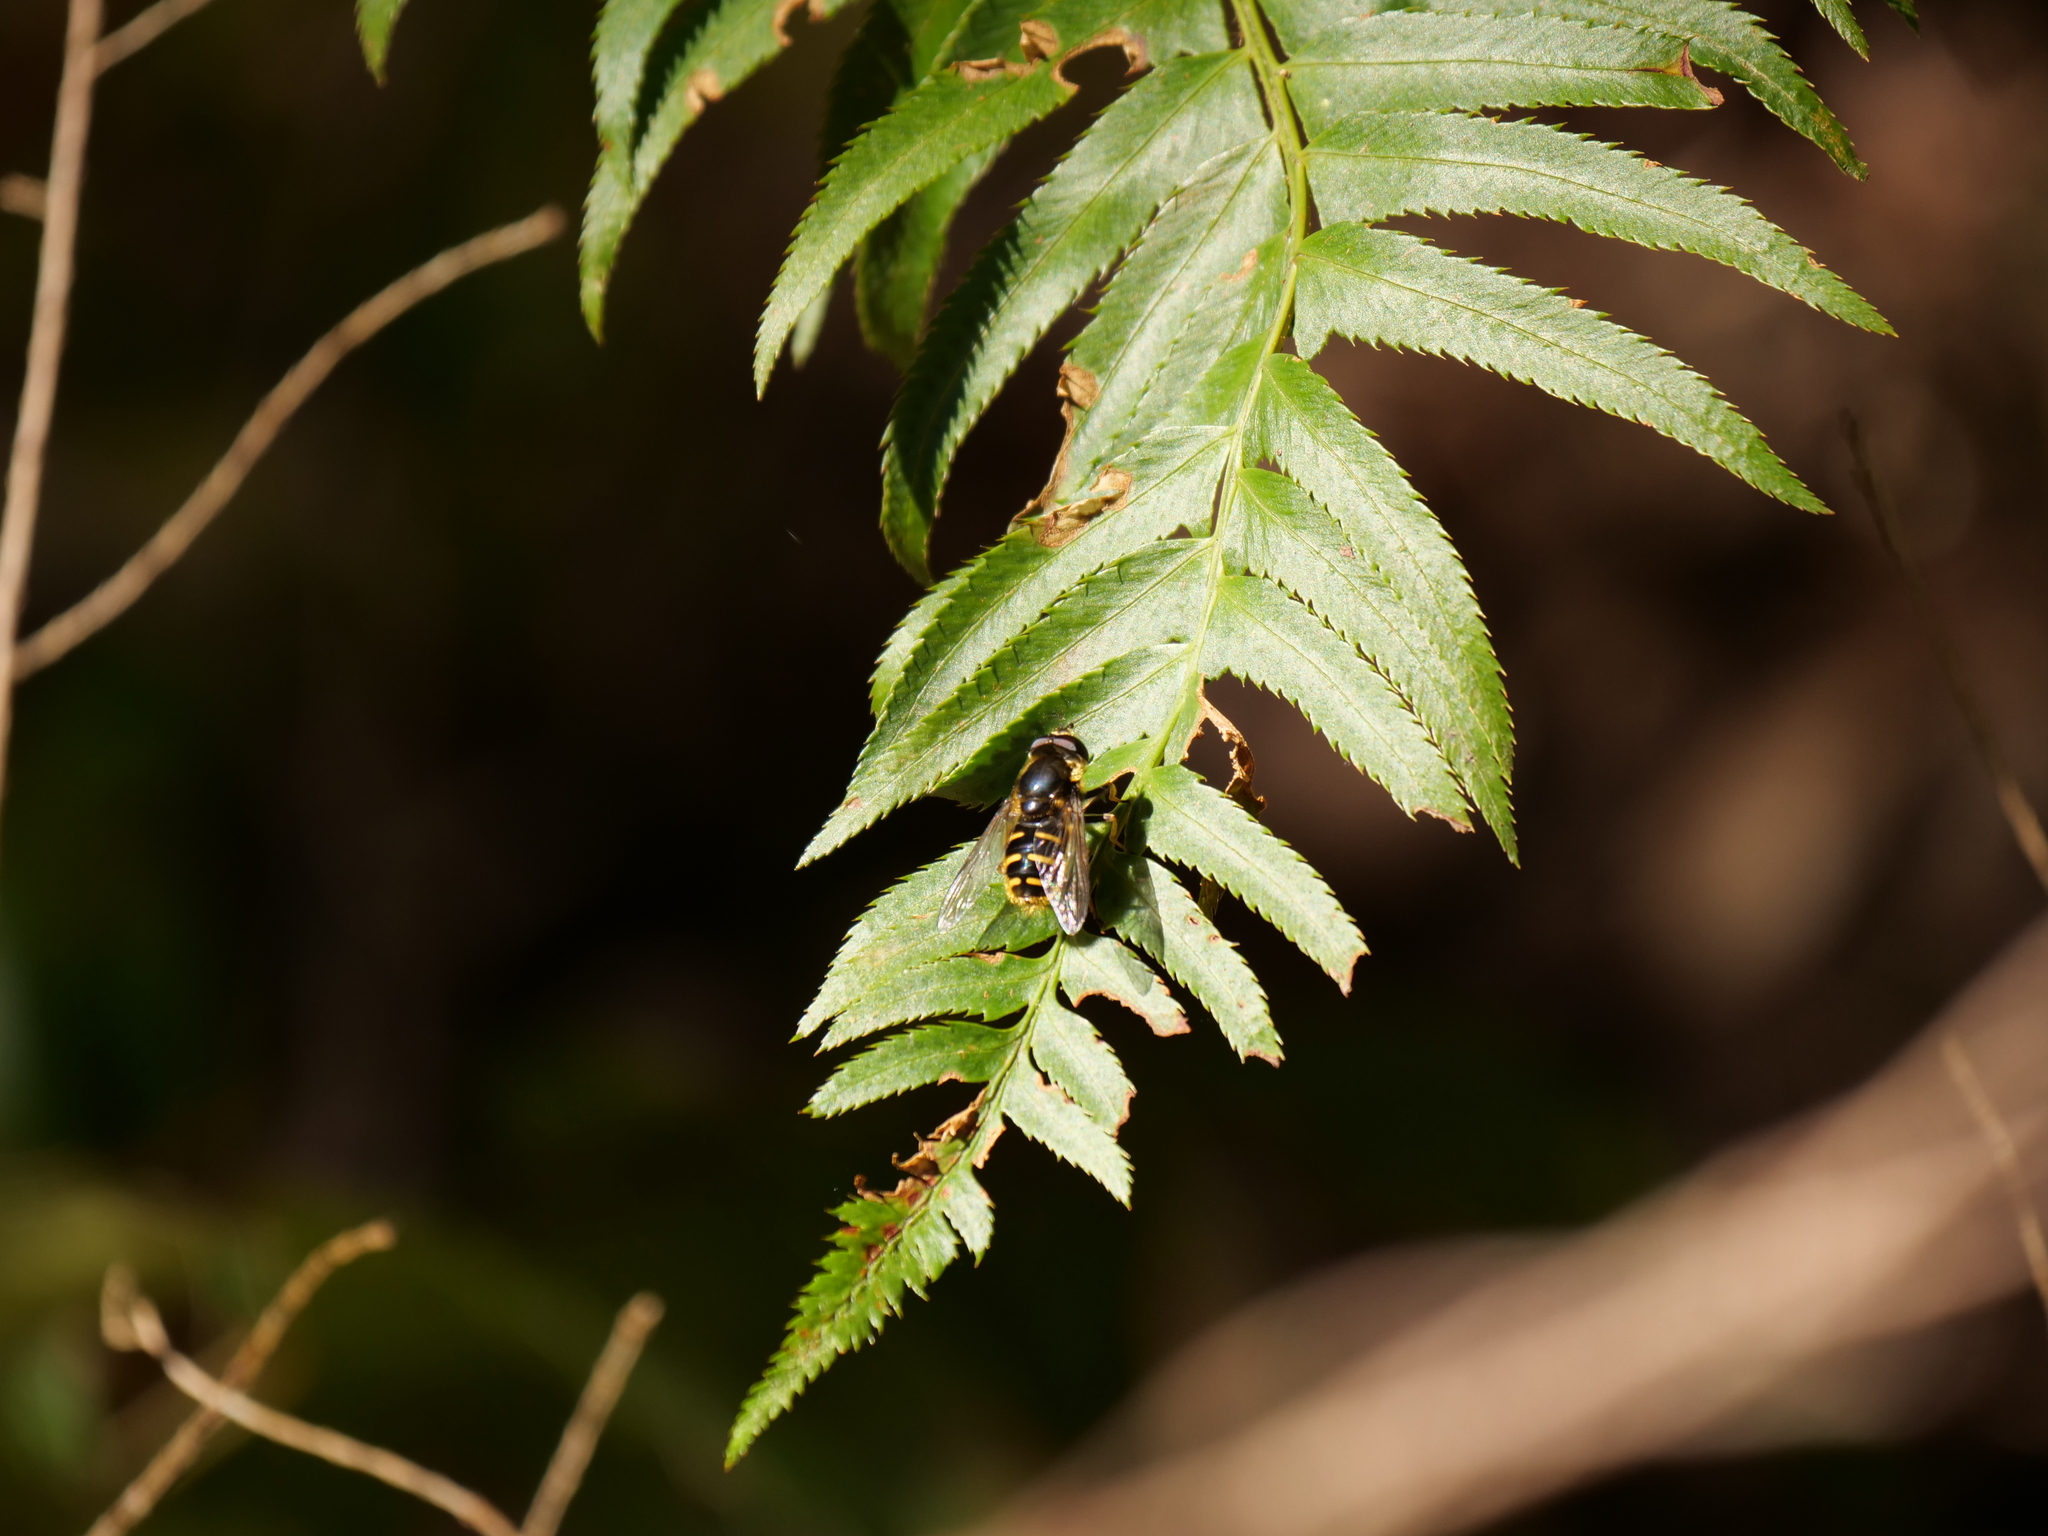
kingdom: Animalia
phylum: Arthropoda
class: Insecta
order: Diptera
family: Syrphidae
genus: Sericomyia
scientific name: Sericomyia chalcopyga
